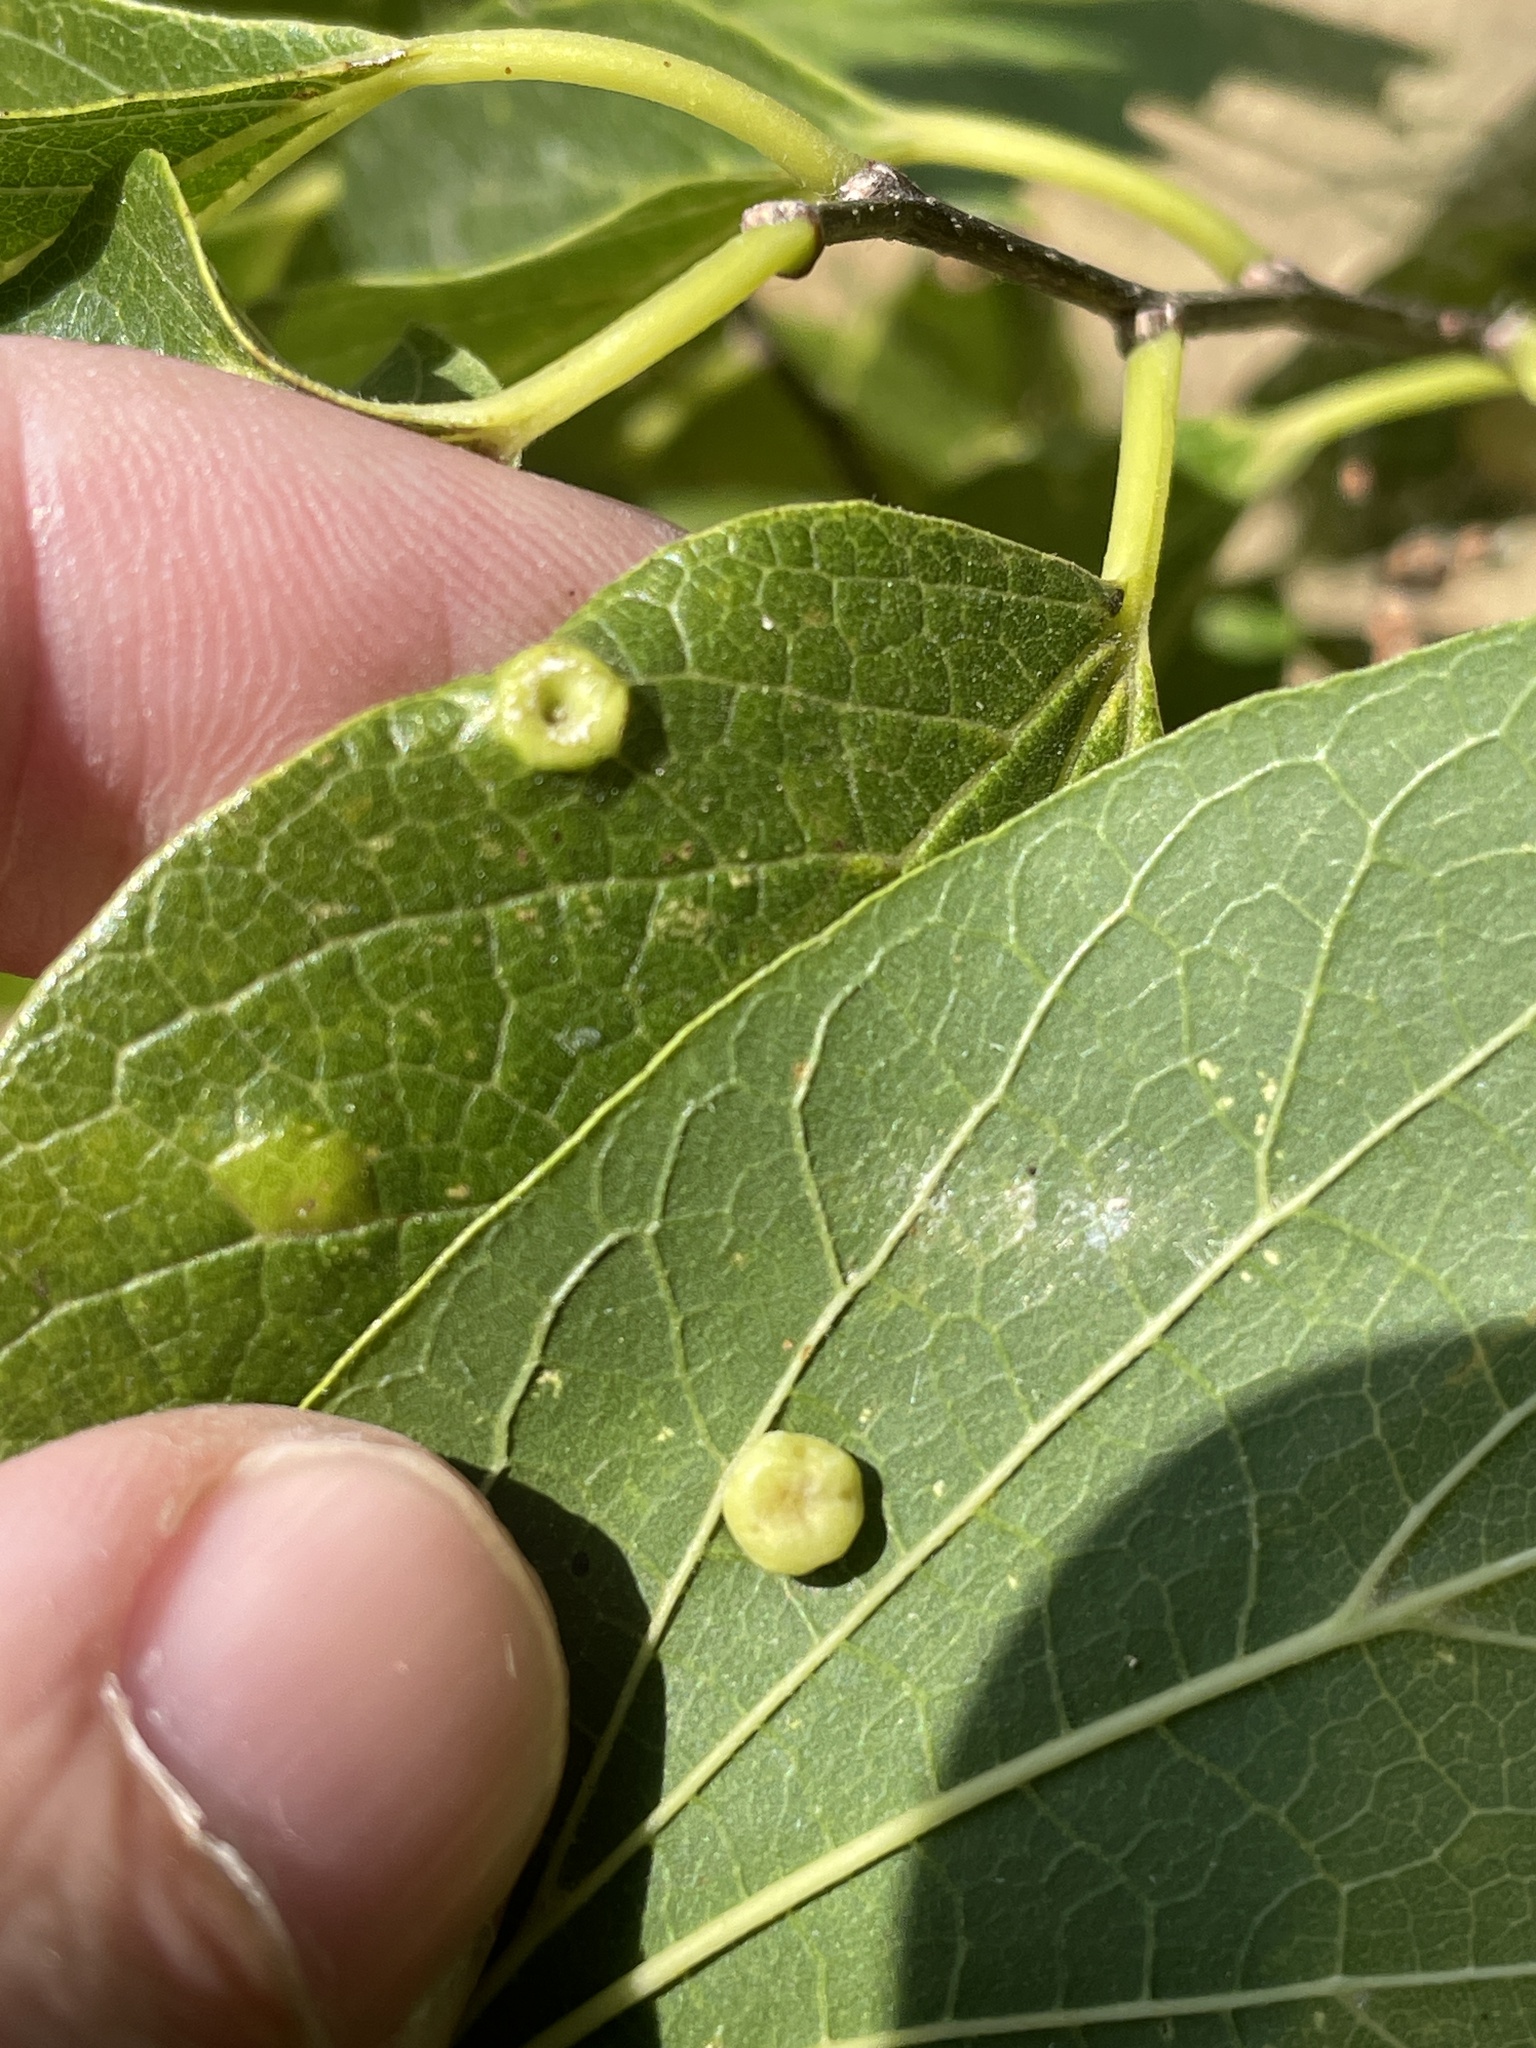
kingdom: Animalia
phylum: Arthropoda
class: Insecta
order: Hemiptera
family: Aphalaridae
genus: Pachypsylla
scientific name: Pachypsylla celtidismamma
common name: Hackberry nipplegall psyllid
